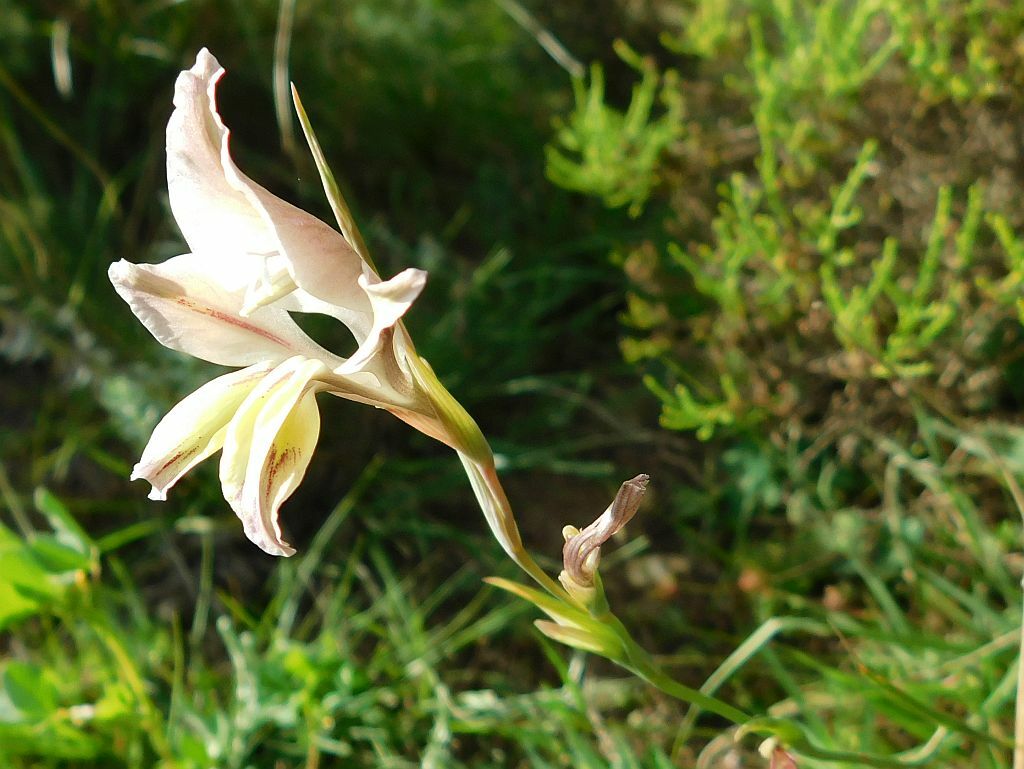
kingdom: Plantae
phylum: Tracheophyta
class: Liliopsida
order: Asparagales
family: Iridaceae
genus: Gladiolus
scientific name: Gladiolus permeabilis
